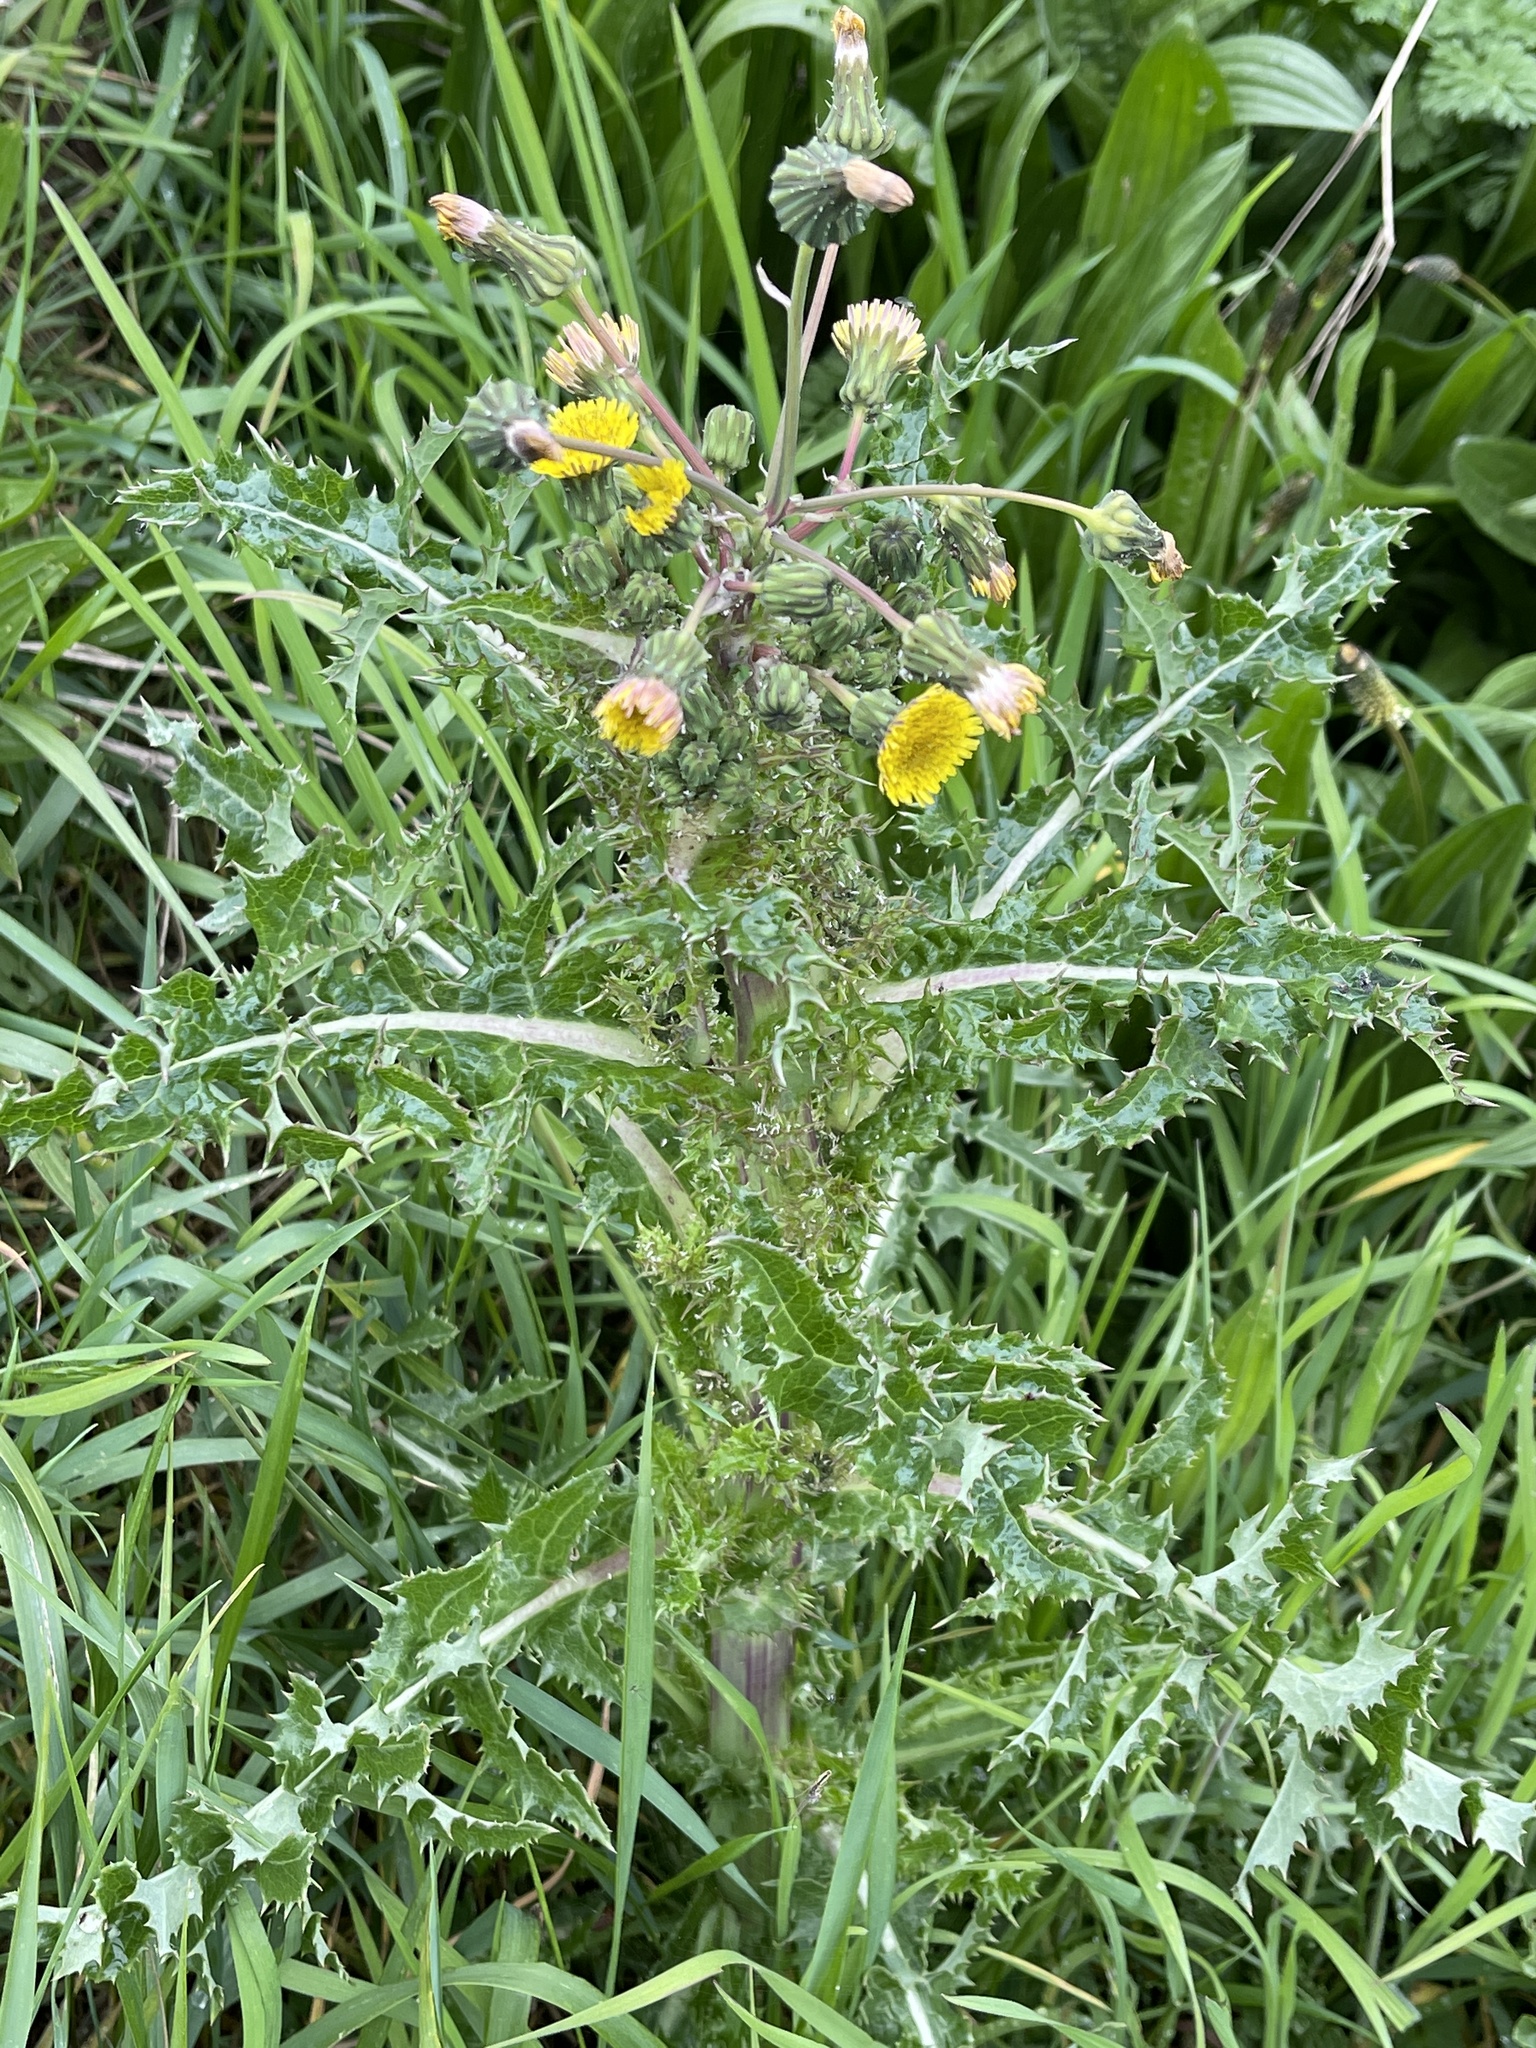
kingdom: Plantae
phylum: Tracheophyta
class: Magnoliopsida
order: Asterales
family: Asteraceae
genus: Sonchus
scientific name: Sonchus asper
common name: Prickly sow-thistle
